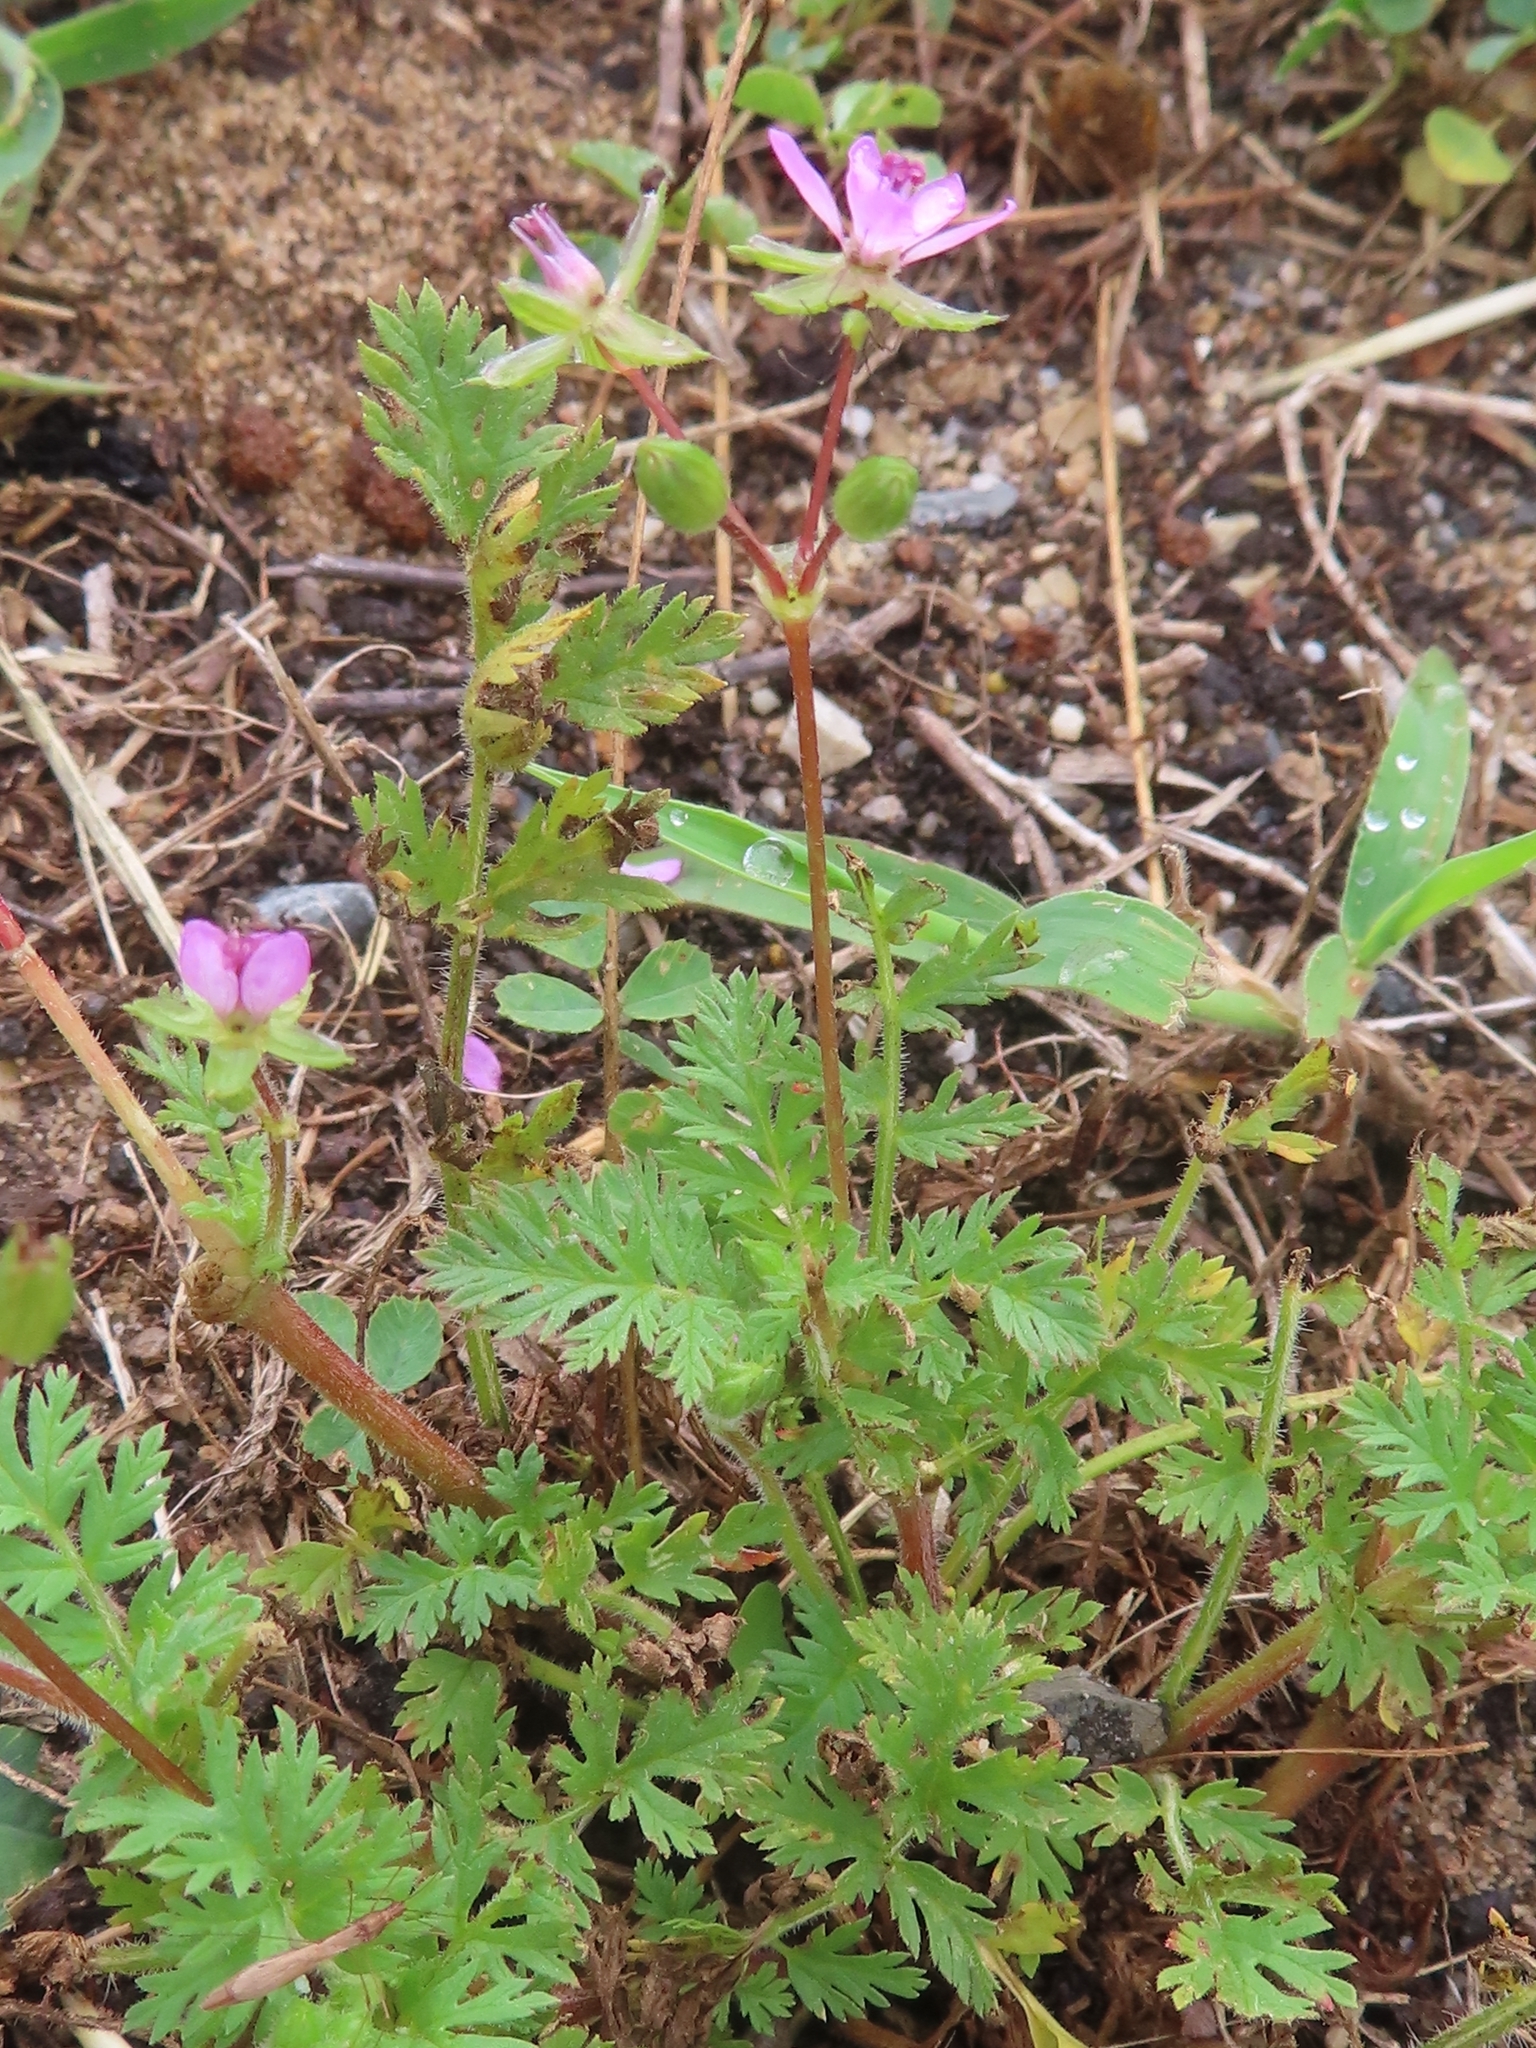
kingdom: Plantae
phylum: Tracheophyta
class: Magnoliopsida
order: Geraniales
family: Geraniaceae
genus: Erodium
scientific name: Erodium cicutarium
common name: Common stork's-bill
